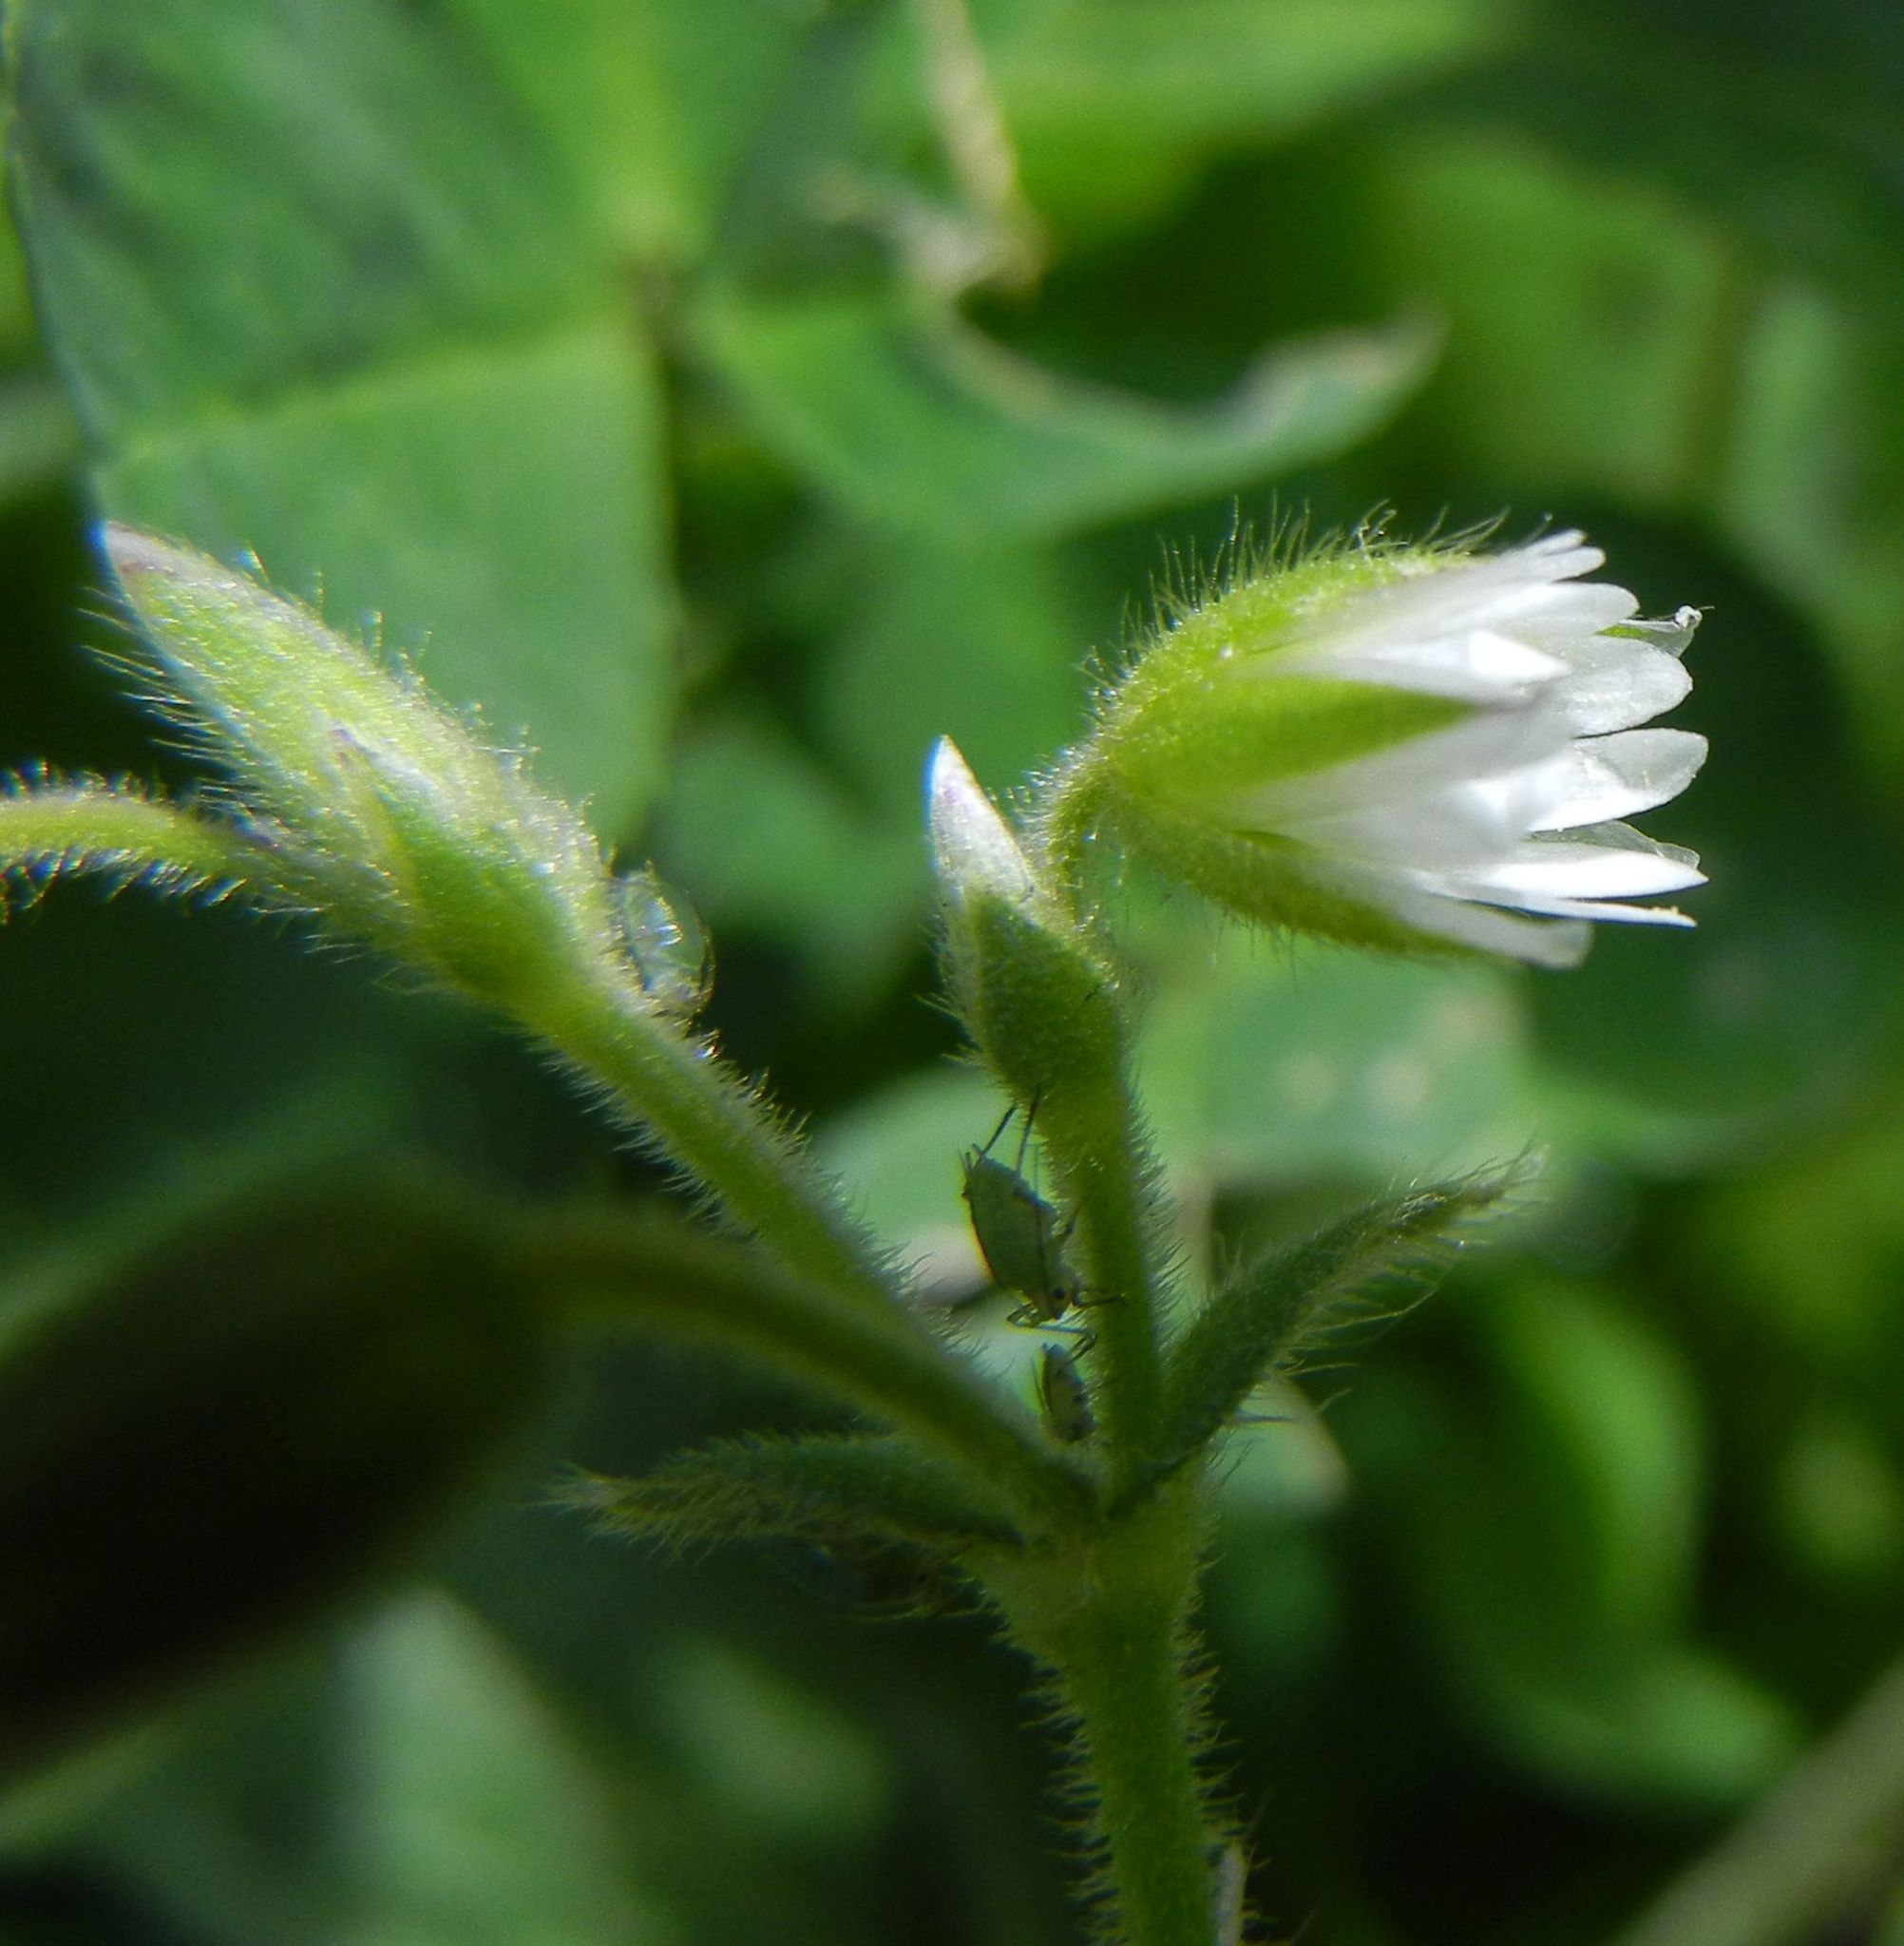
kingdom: Plantae
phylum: Tracheophyta
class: Magnoliopsida
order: Caryophyllales
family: Caryophyllaceae
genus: Cerastium
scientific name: Cerastium fontanum
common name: Common mouse-ear
